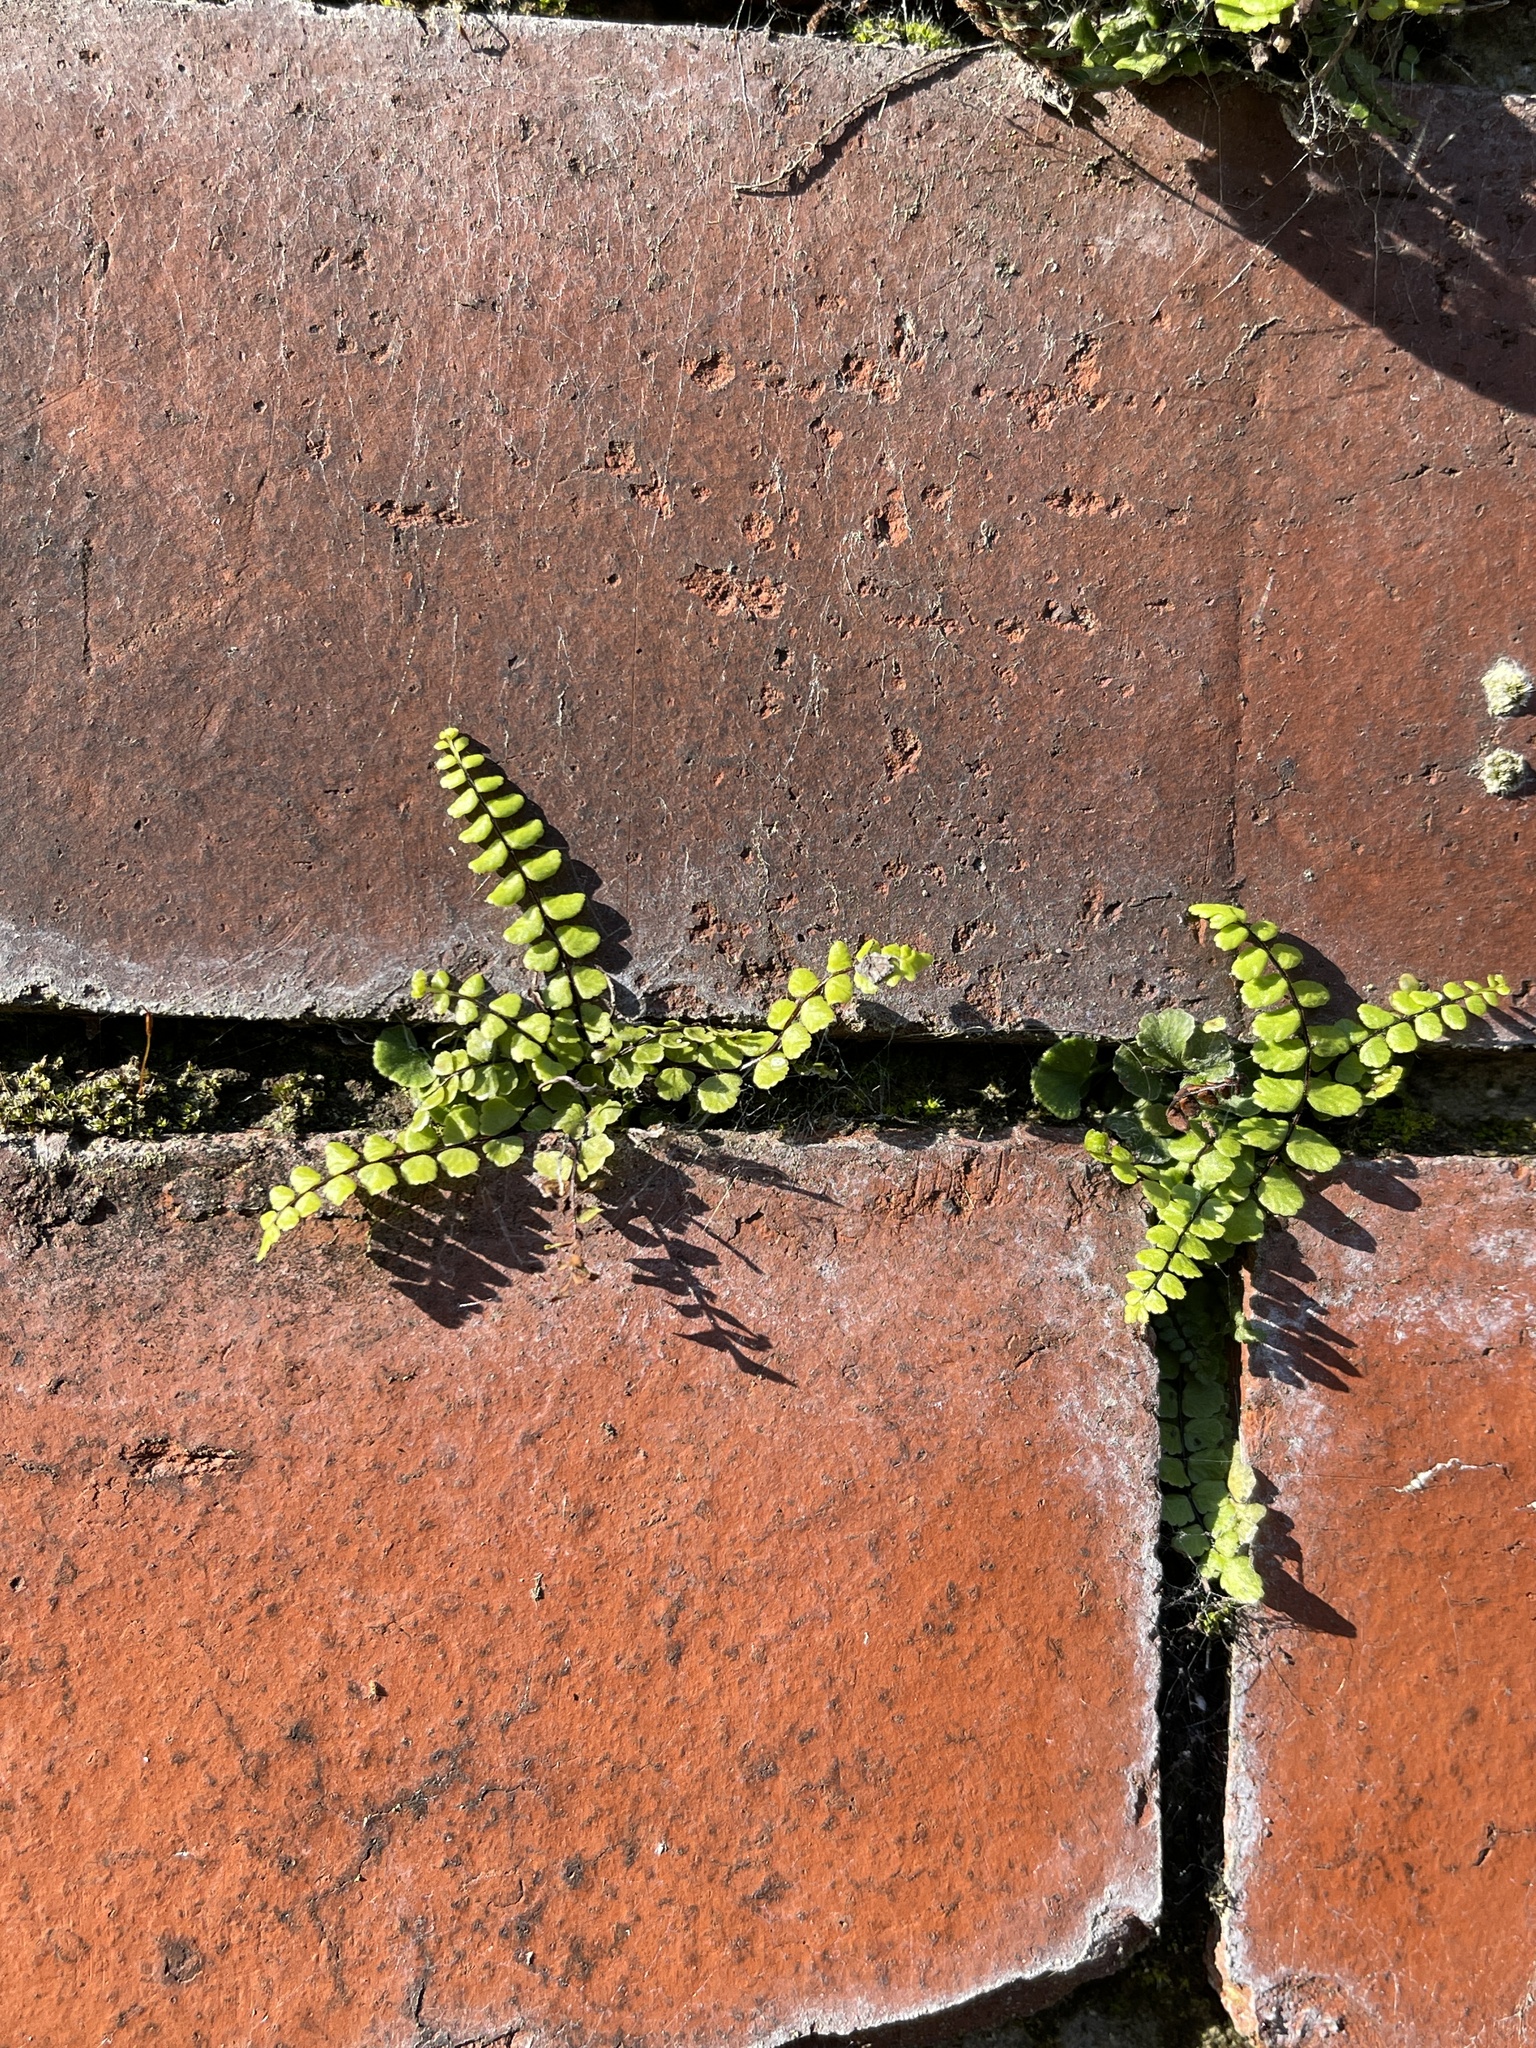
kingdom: Plantae
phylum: Tracheophyta
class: Polypodiopsida
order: Polypodiales
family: Aspleniaceae
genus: Asplenium
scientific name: Asplenium trichomanes
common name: Maidenhair spleenwort
